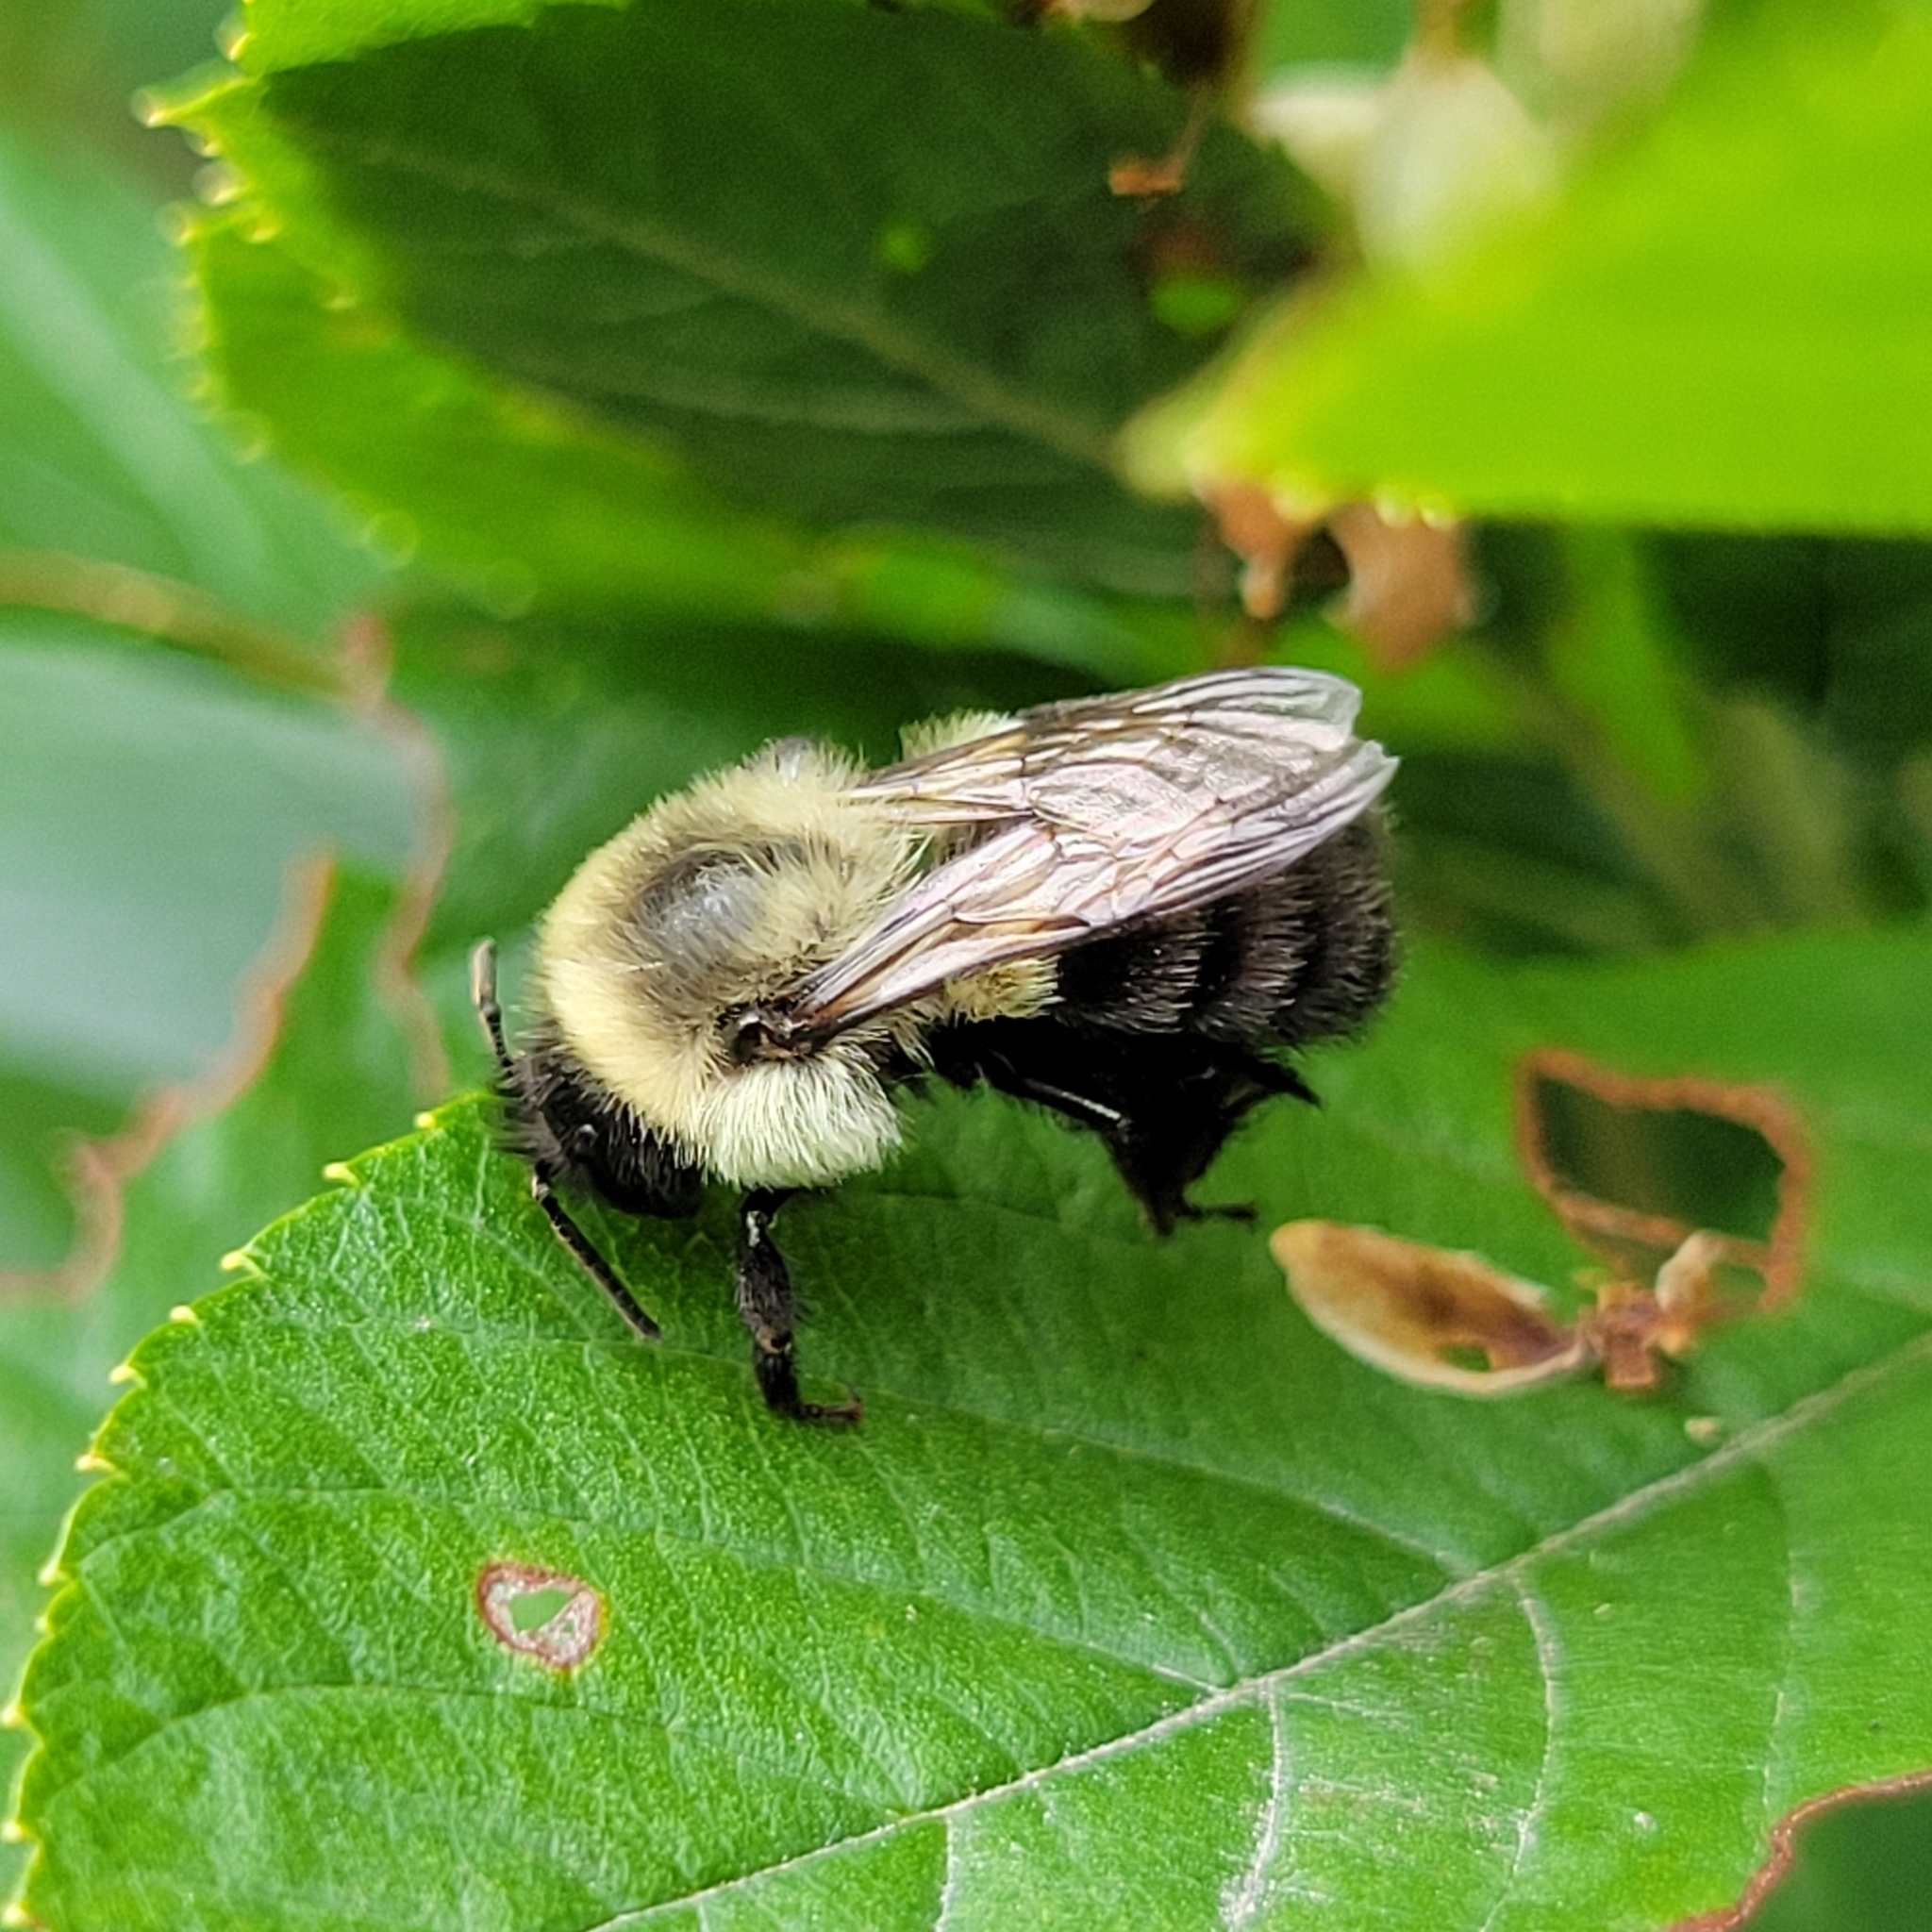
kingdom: Animalia
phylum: Arthropoda
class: Insecta
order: Hymenoptera
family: Apidae
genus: Bombus
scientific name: Bombus impatiens
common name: Common eastern bumble bee
